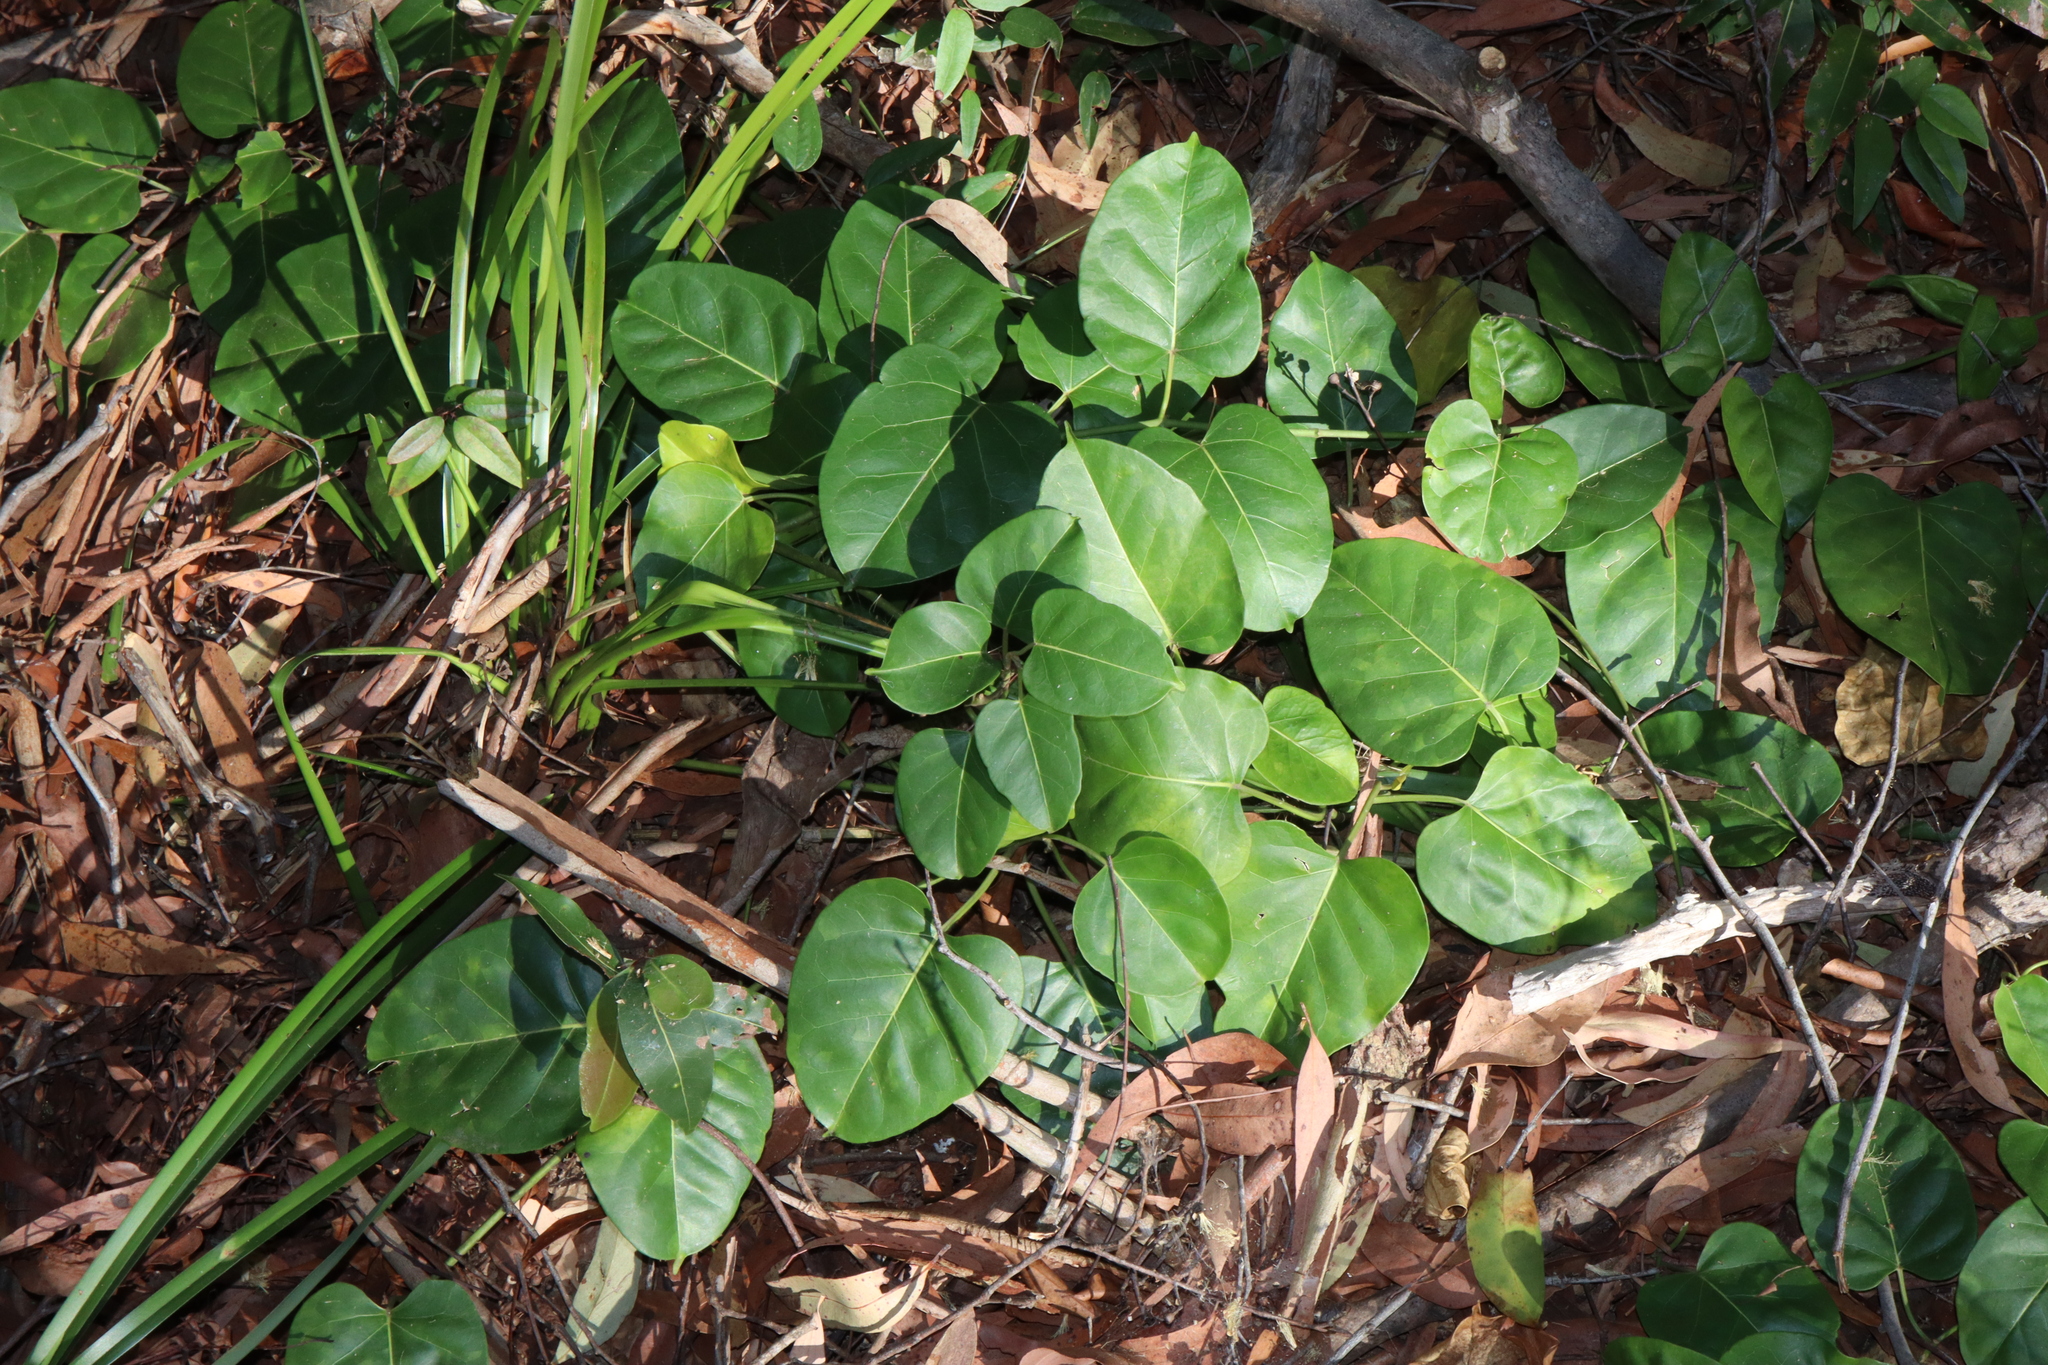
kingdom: Plantae
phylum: Tracheophyta
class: Magnoliopsida
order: Gentianales
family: Apocynaceae
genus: Leichhardtia
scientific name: Leichhardtia rostrata
